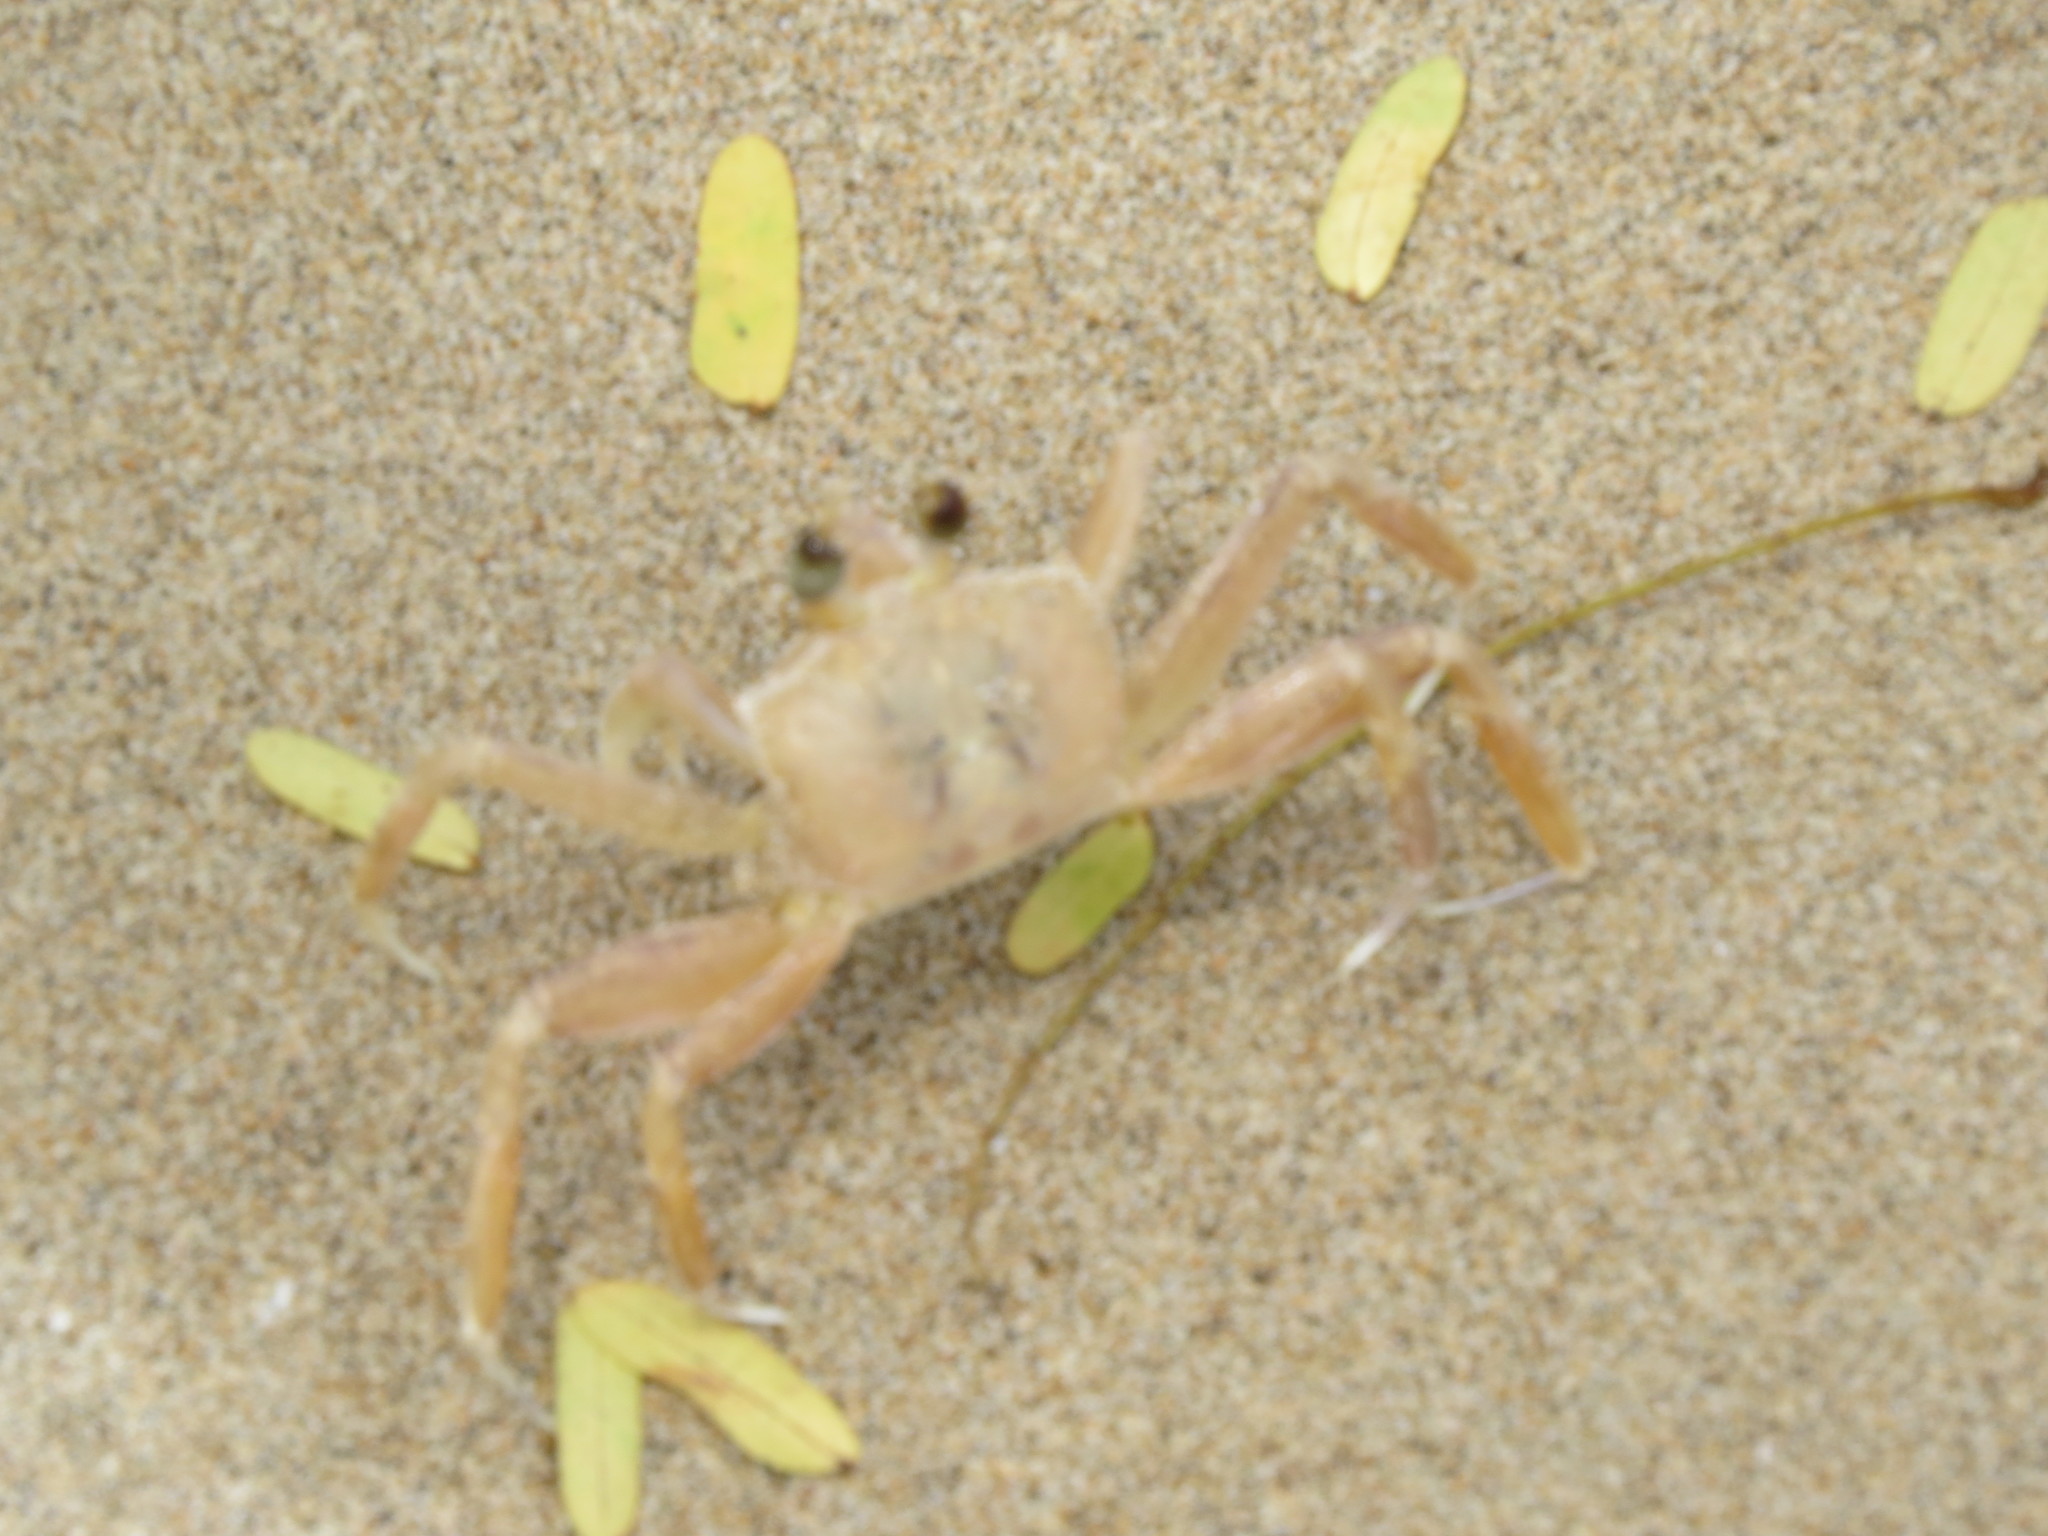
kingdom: Animalia
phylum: Arthropoda
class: Malacostraca
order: Decapoda
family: Ocypodidae
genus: Ocypode
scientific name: Ocypode cursor
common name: Tufted ghost crab
